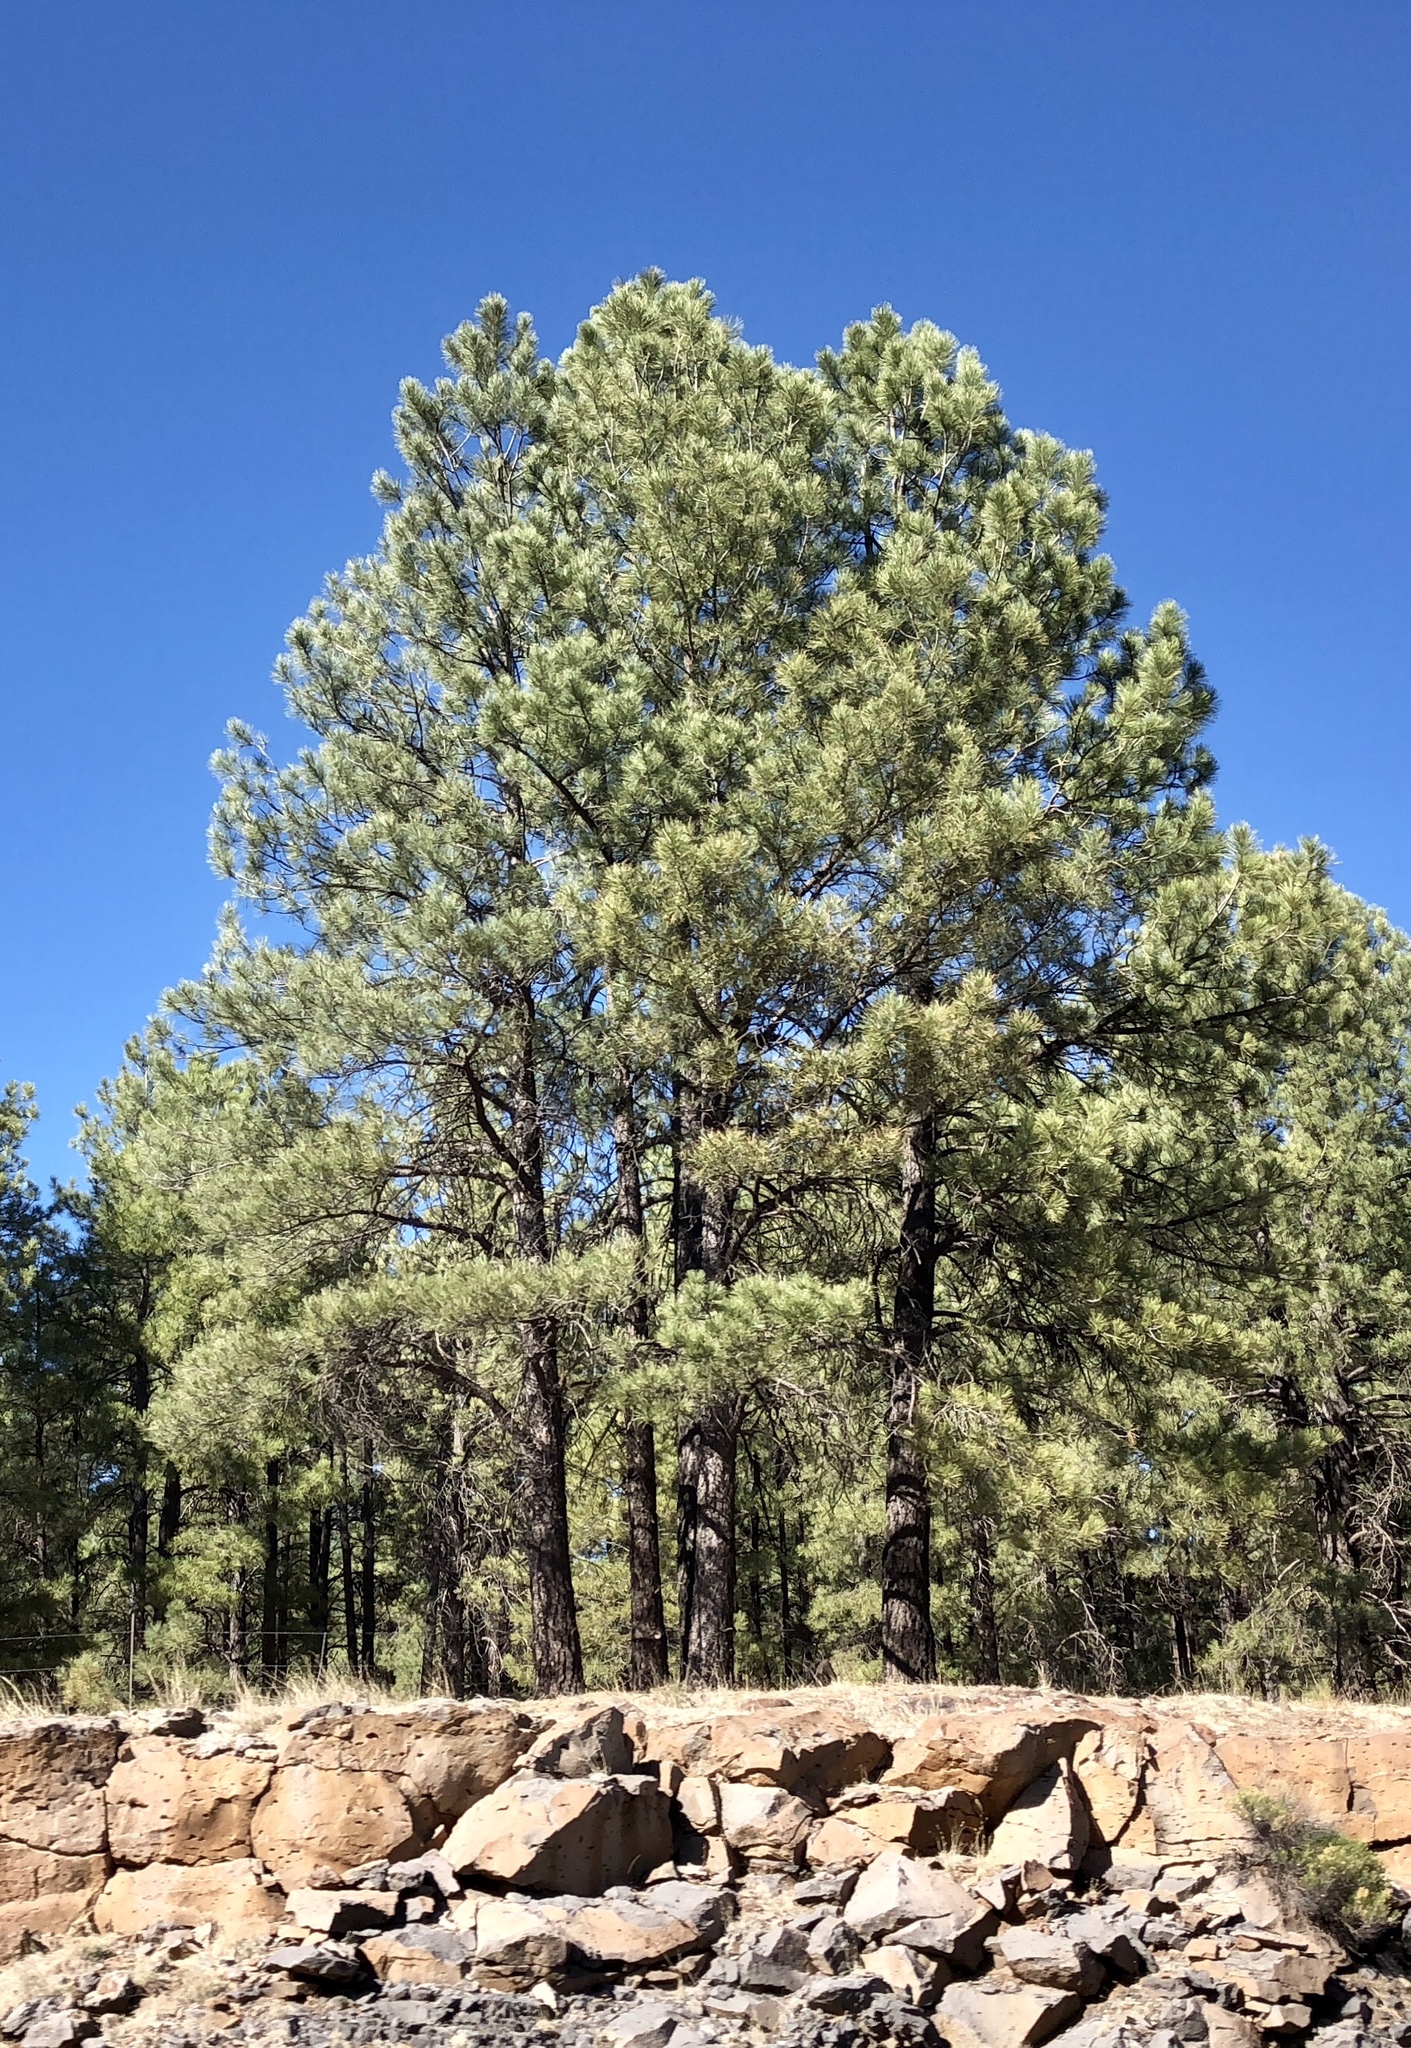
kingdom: Plantae
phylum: Tracheophyta
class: Pinopsida
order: Pinales
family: Pinaceae
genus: Pinus
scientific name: Pinus ponderosa
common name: Western yellow-pine
